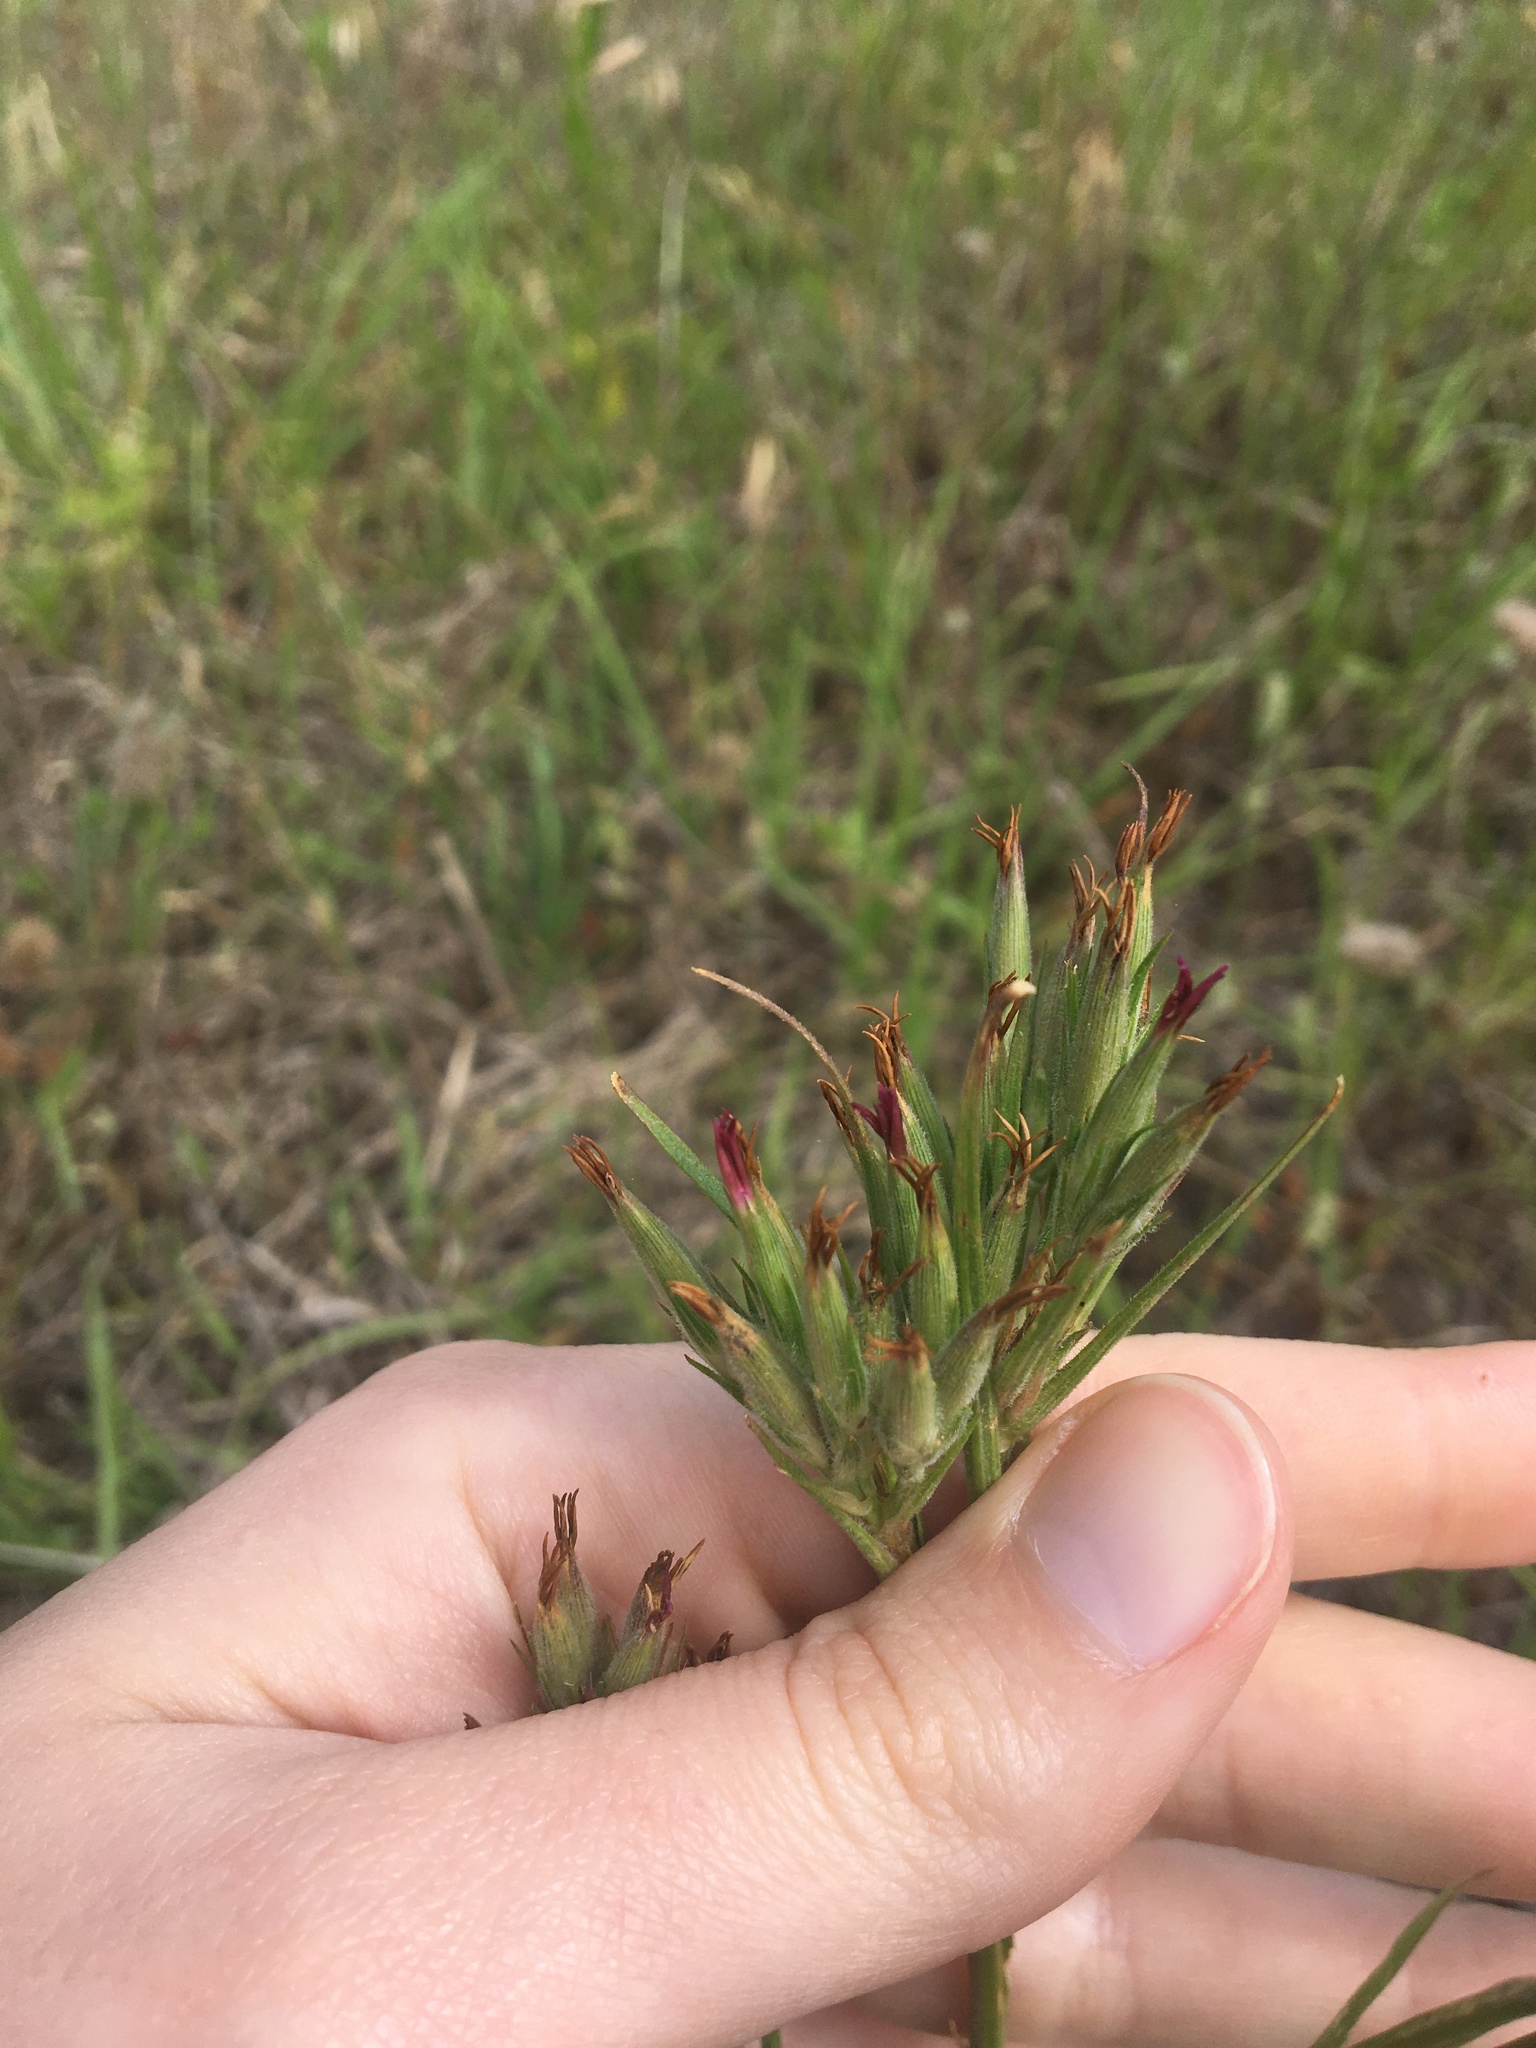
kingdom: Plantae
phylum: Tracheophyta
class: Magnoliopsida
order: Caryophyllales
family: Caryophyllaceae
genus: Dianthus
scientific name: Dianthus armeria
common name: Deptford pink
